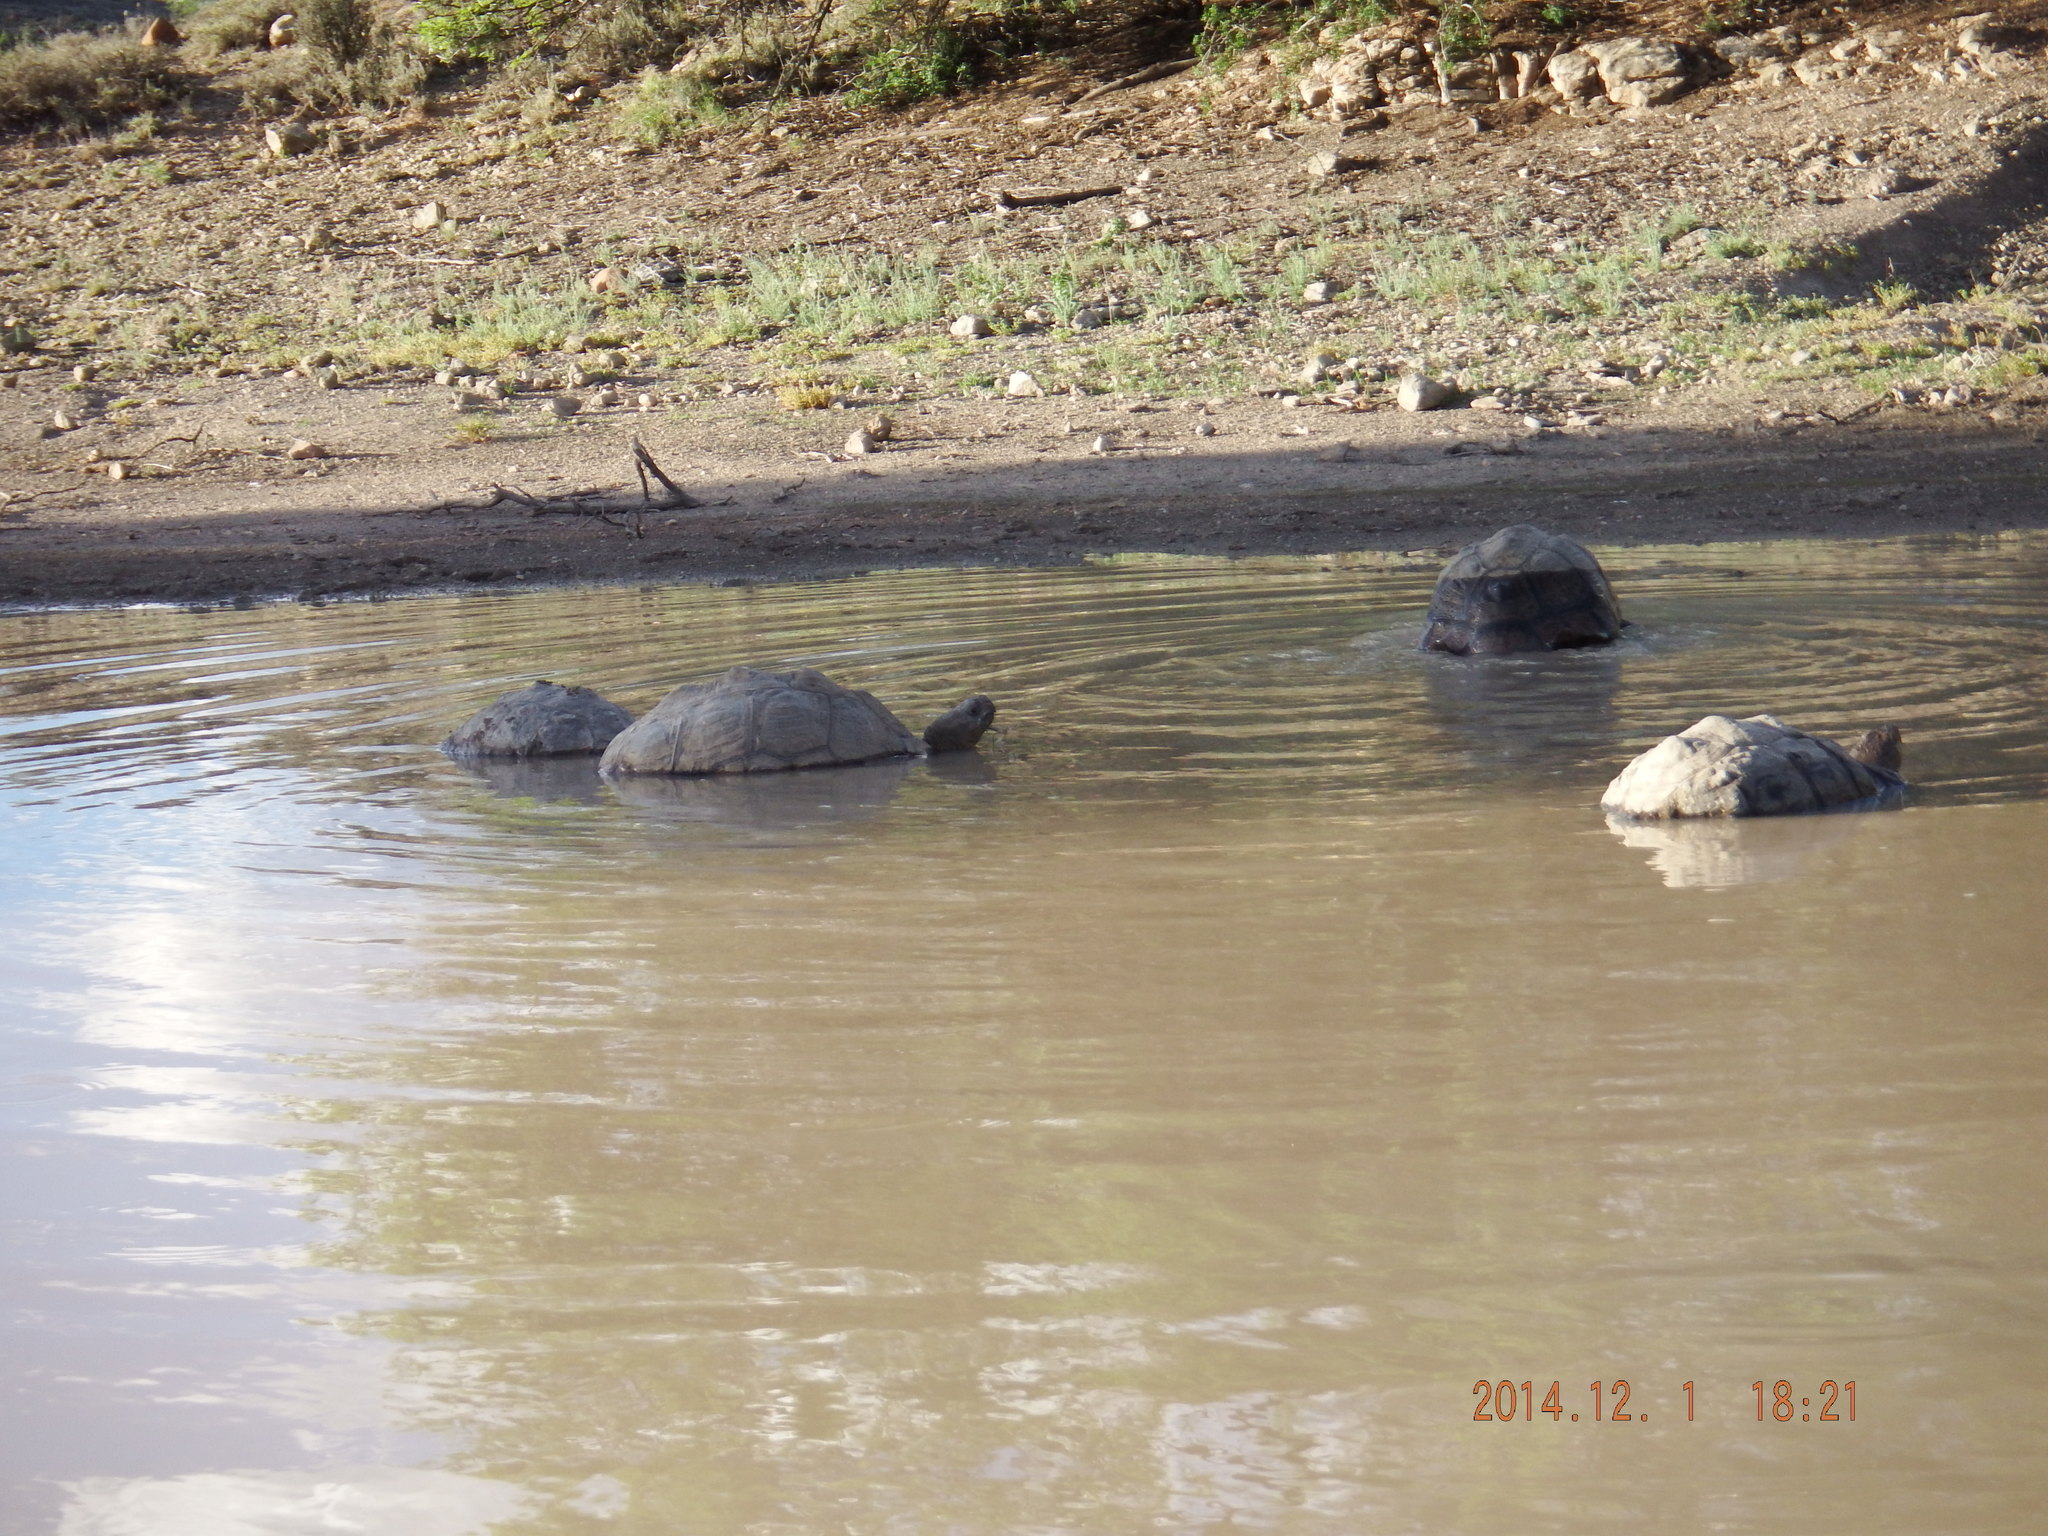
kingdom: Animalia
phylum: Chordata
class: Testudines
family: Testudinidae
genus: Stigmochelys
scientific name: Stigmochelys pardalis
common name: Leopard tortoise
